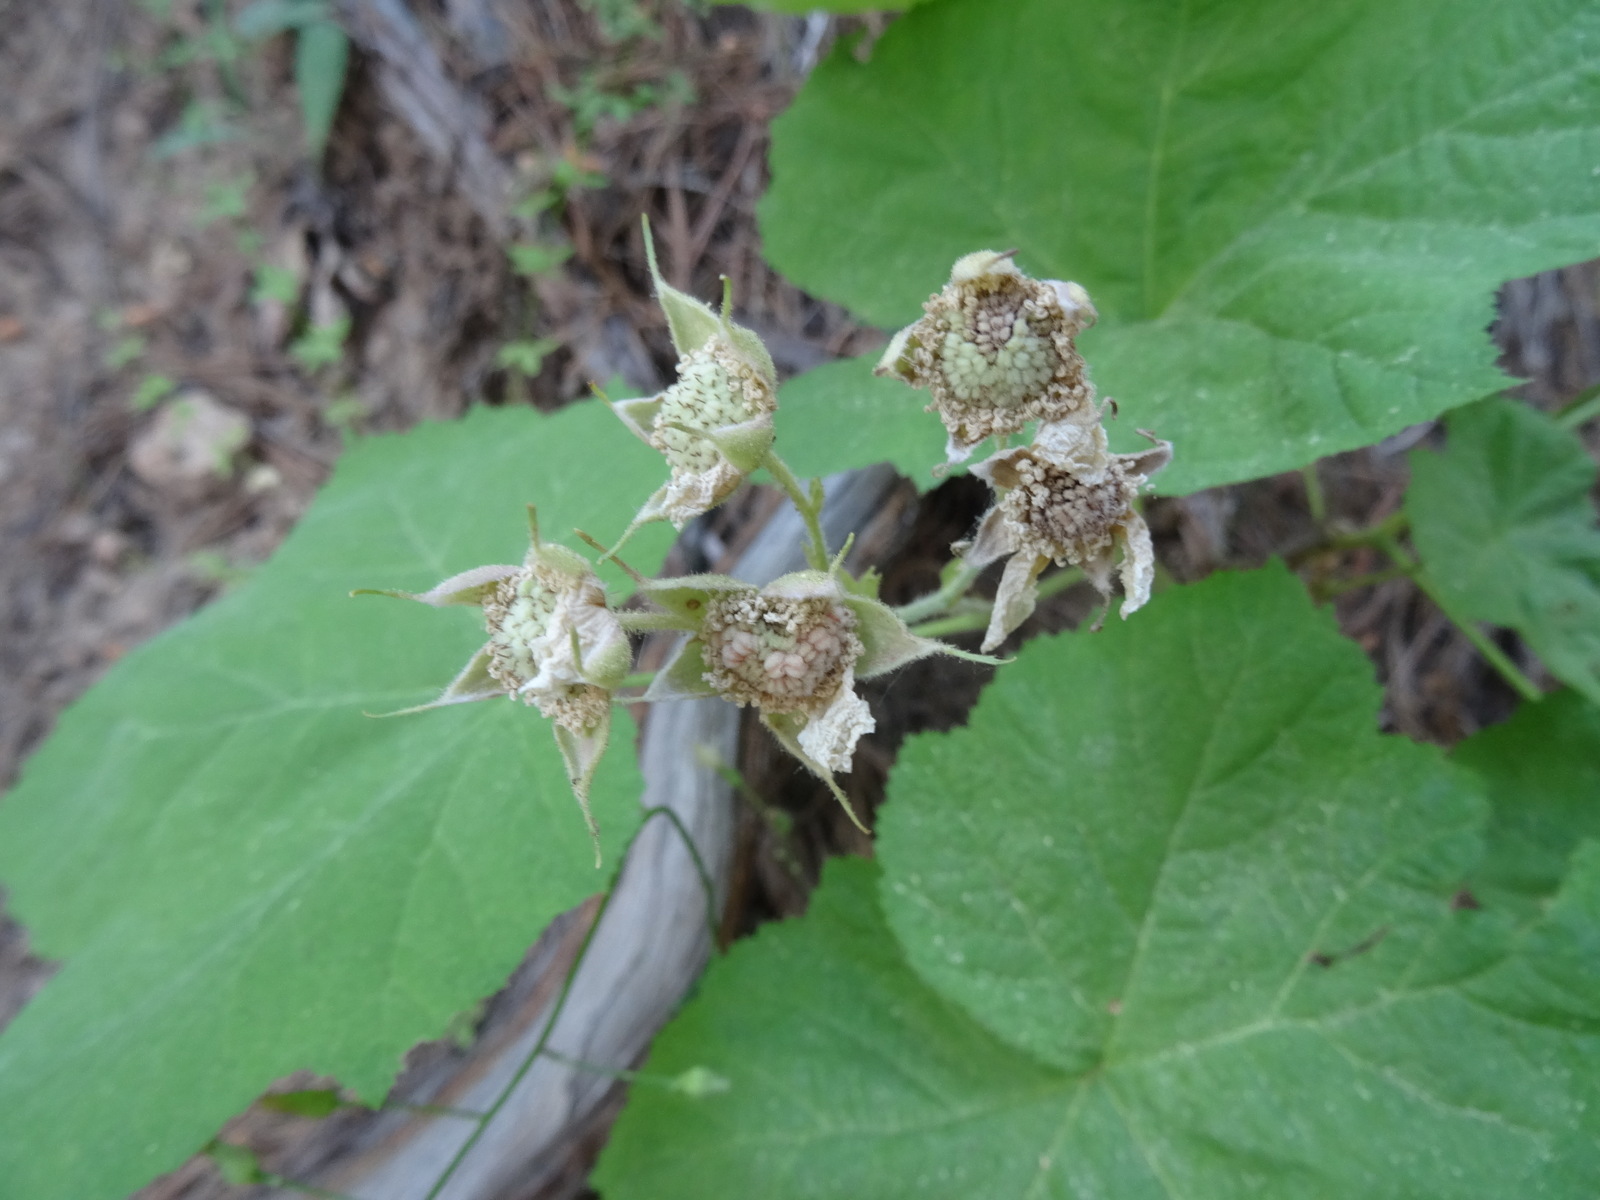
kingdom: Plantae
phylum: Tracheophyta
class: Magnoliopsida
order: Rosales
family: Rosaceae
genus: Rubus
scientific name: Rubus parviflorus
